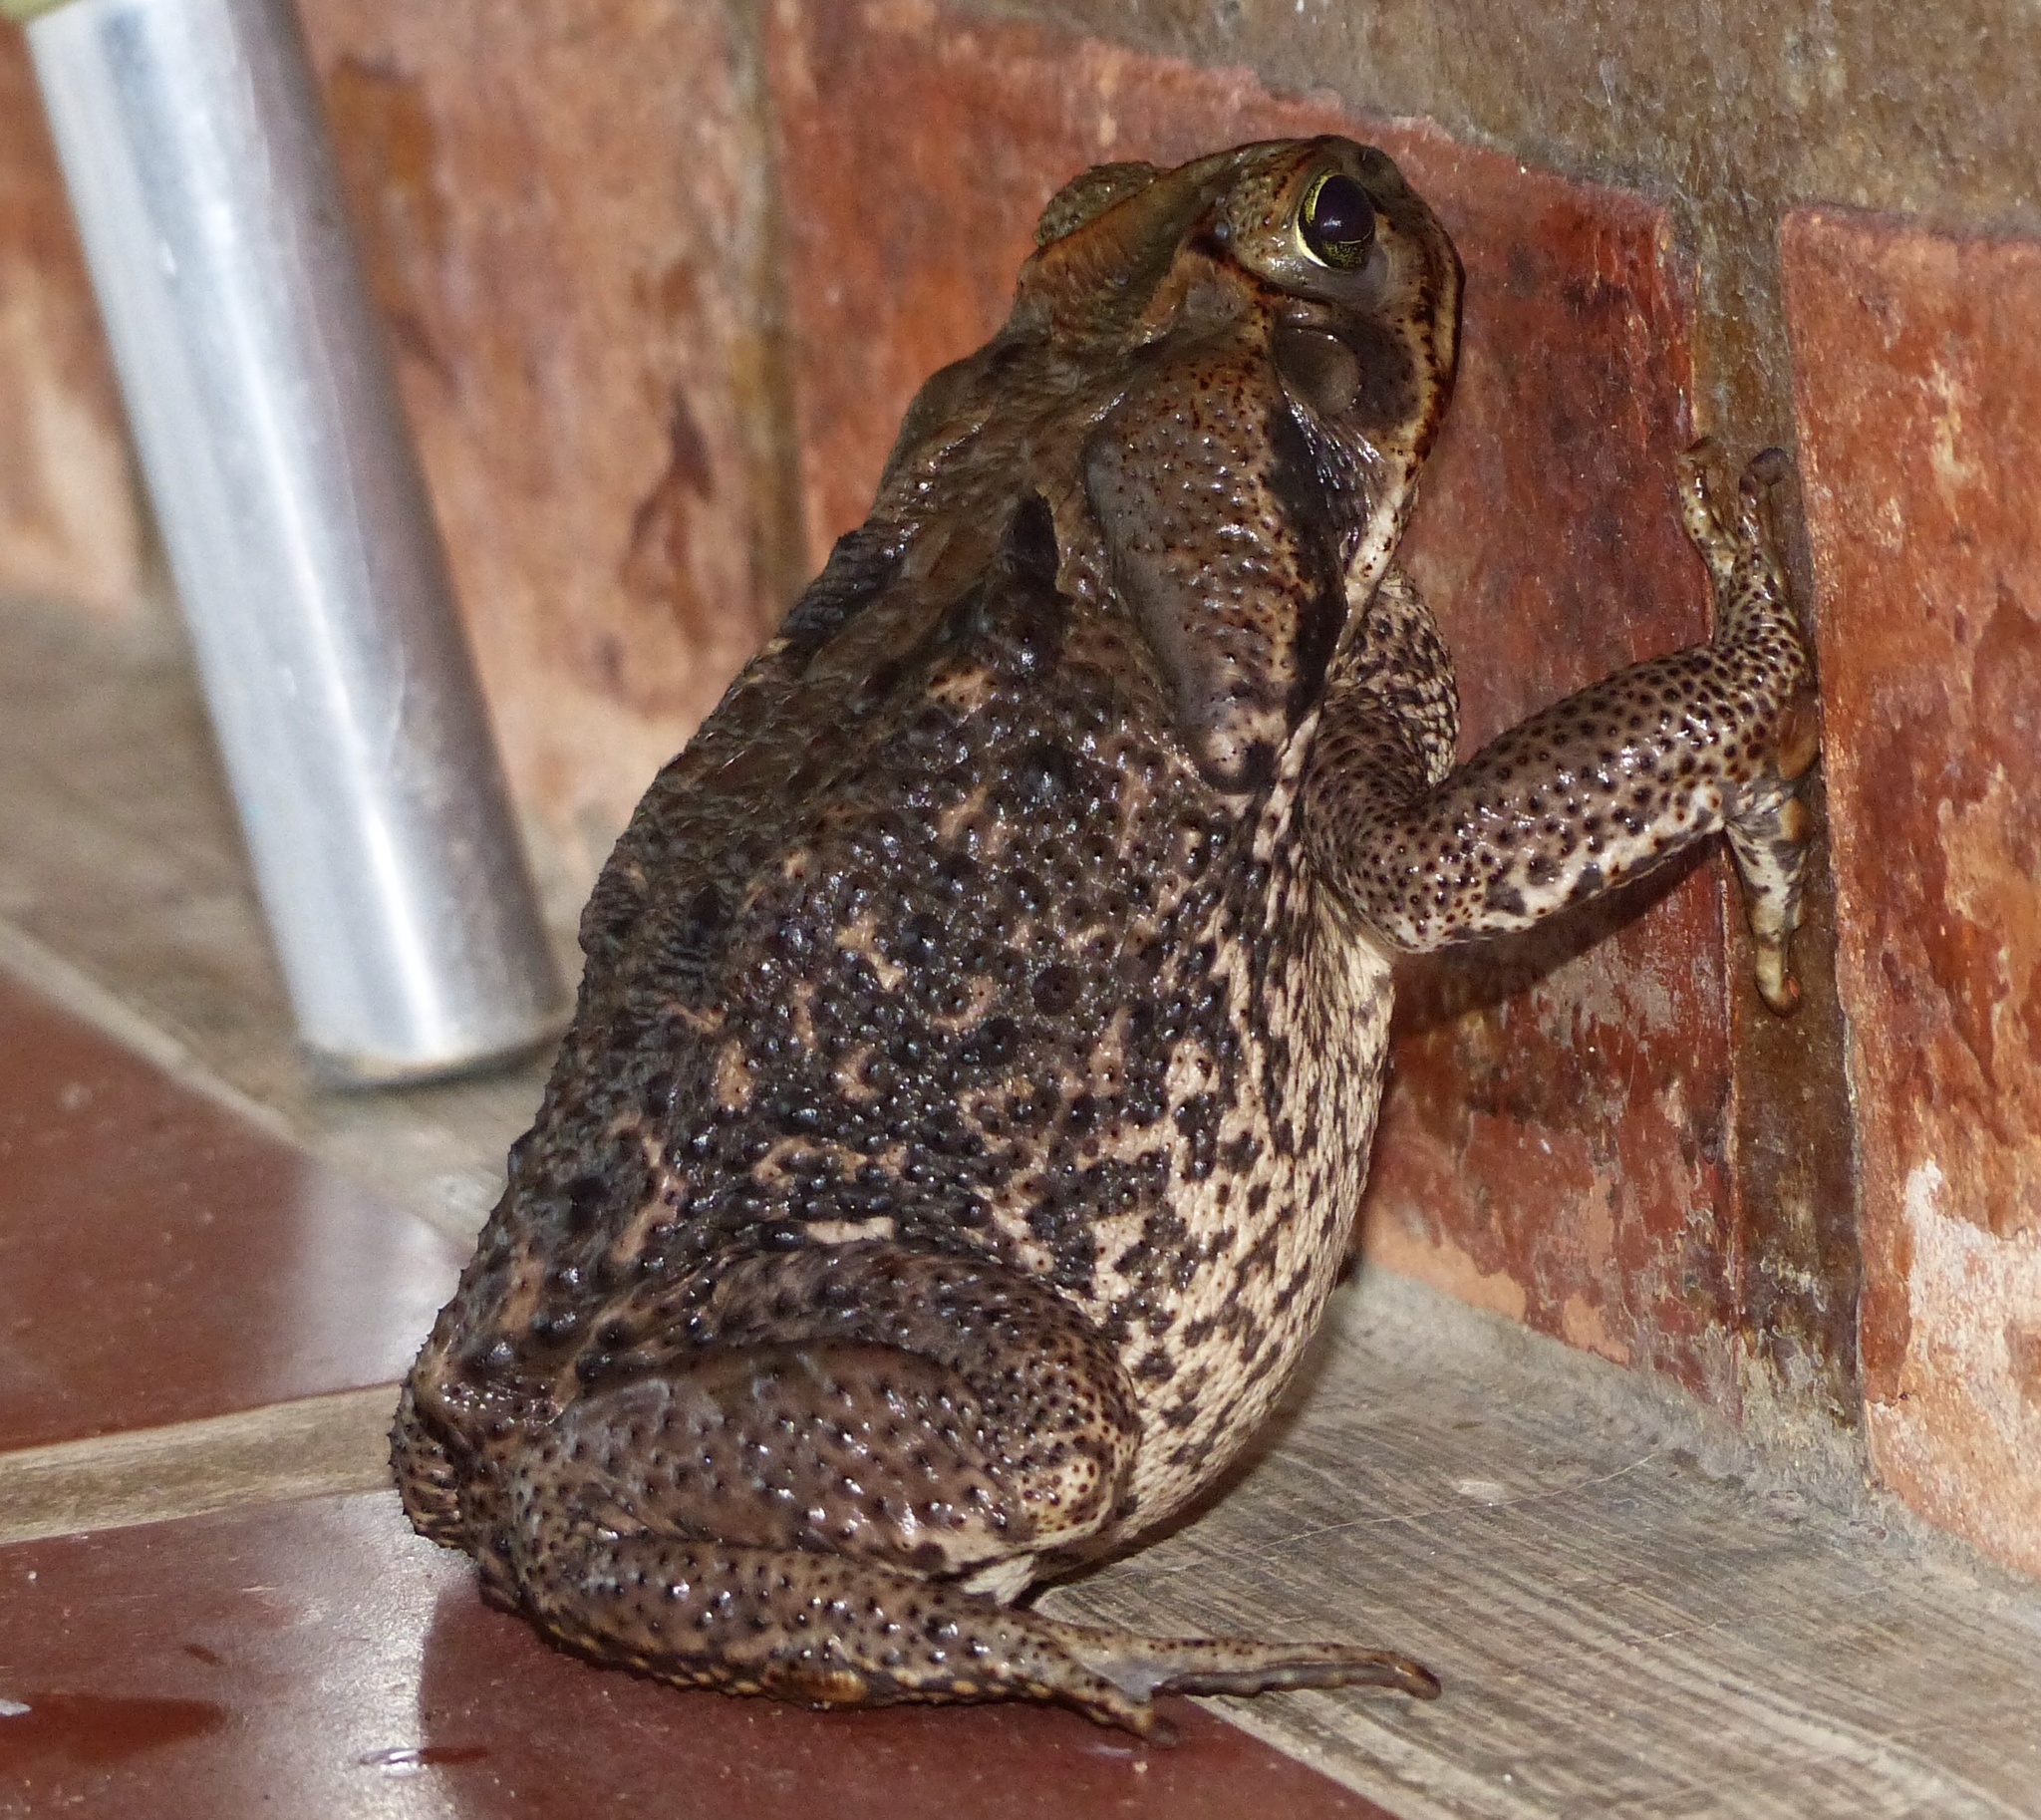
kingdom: Animalia
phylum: Chordata
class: Amphibia
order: Anura
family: Bufonidae
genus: Rhinella
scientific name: Rhinella diptycha
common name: Cope's toad
